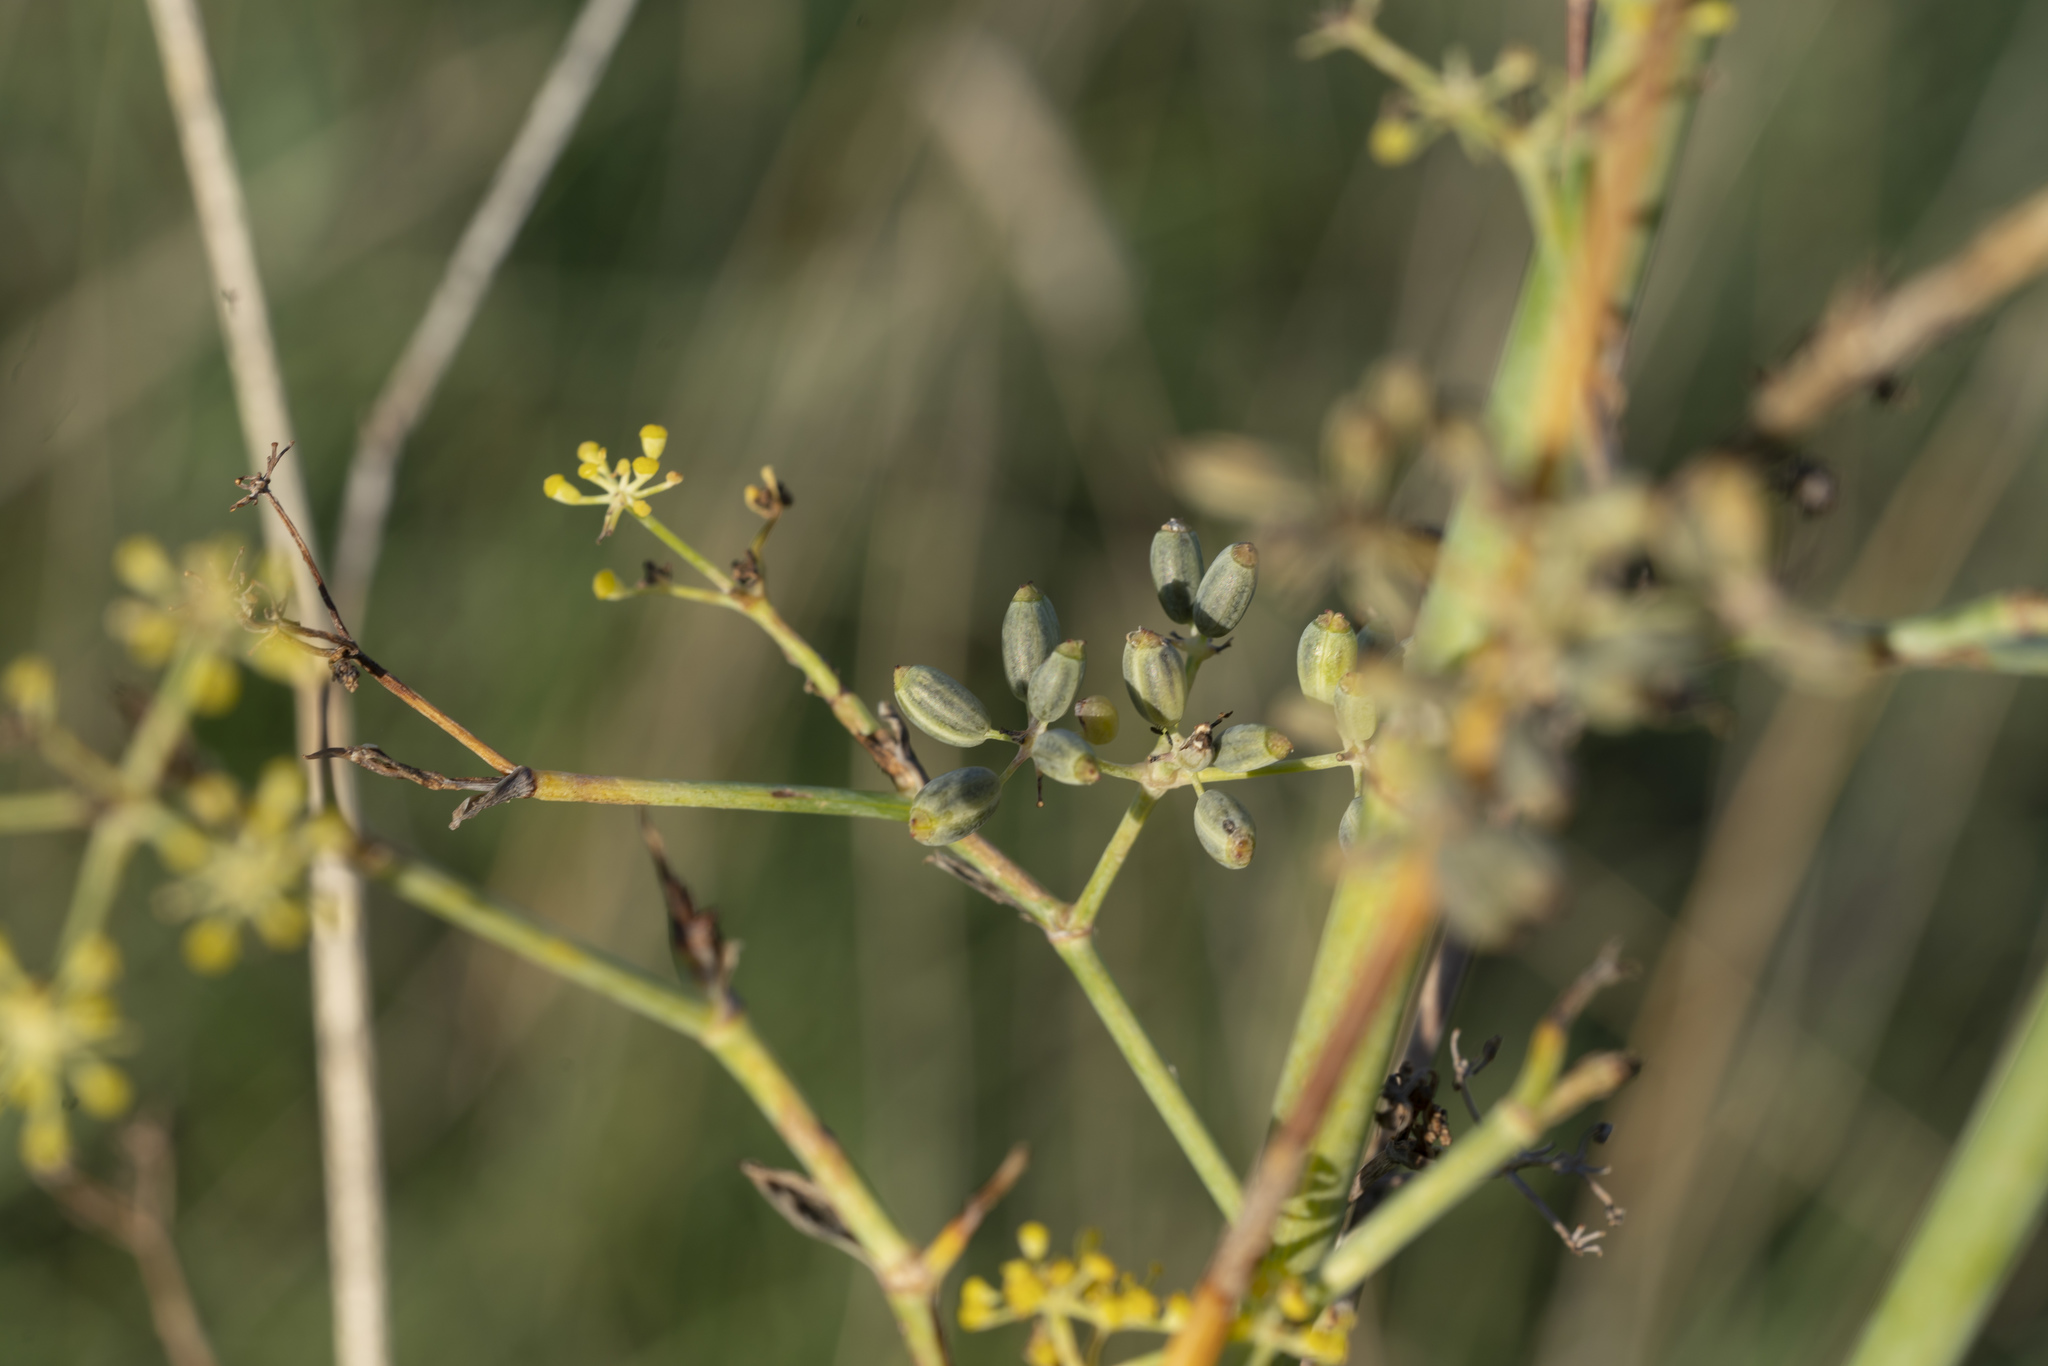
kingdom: Plantae
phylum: Tracheophyta
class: Magnoliopsida
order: Apiales
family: Apiaceae
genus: Foeniculum
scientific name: Foeniculum vulgare
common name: Fennel
